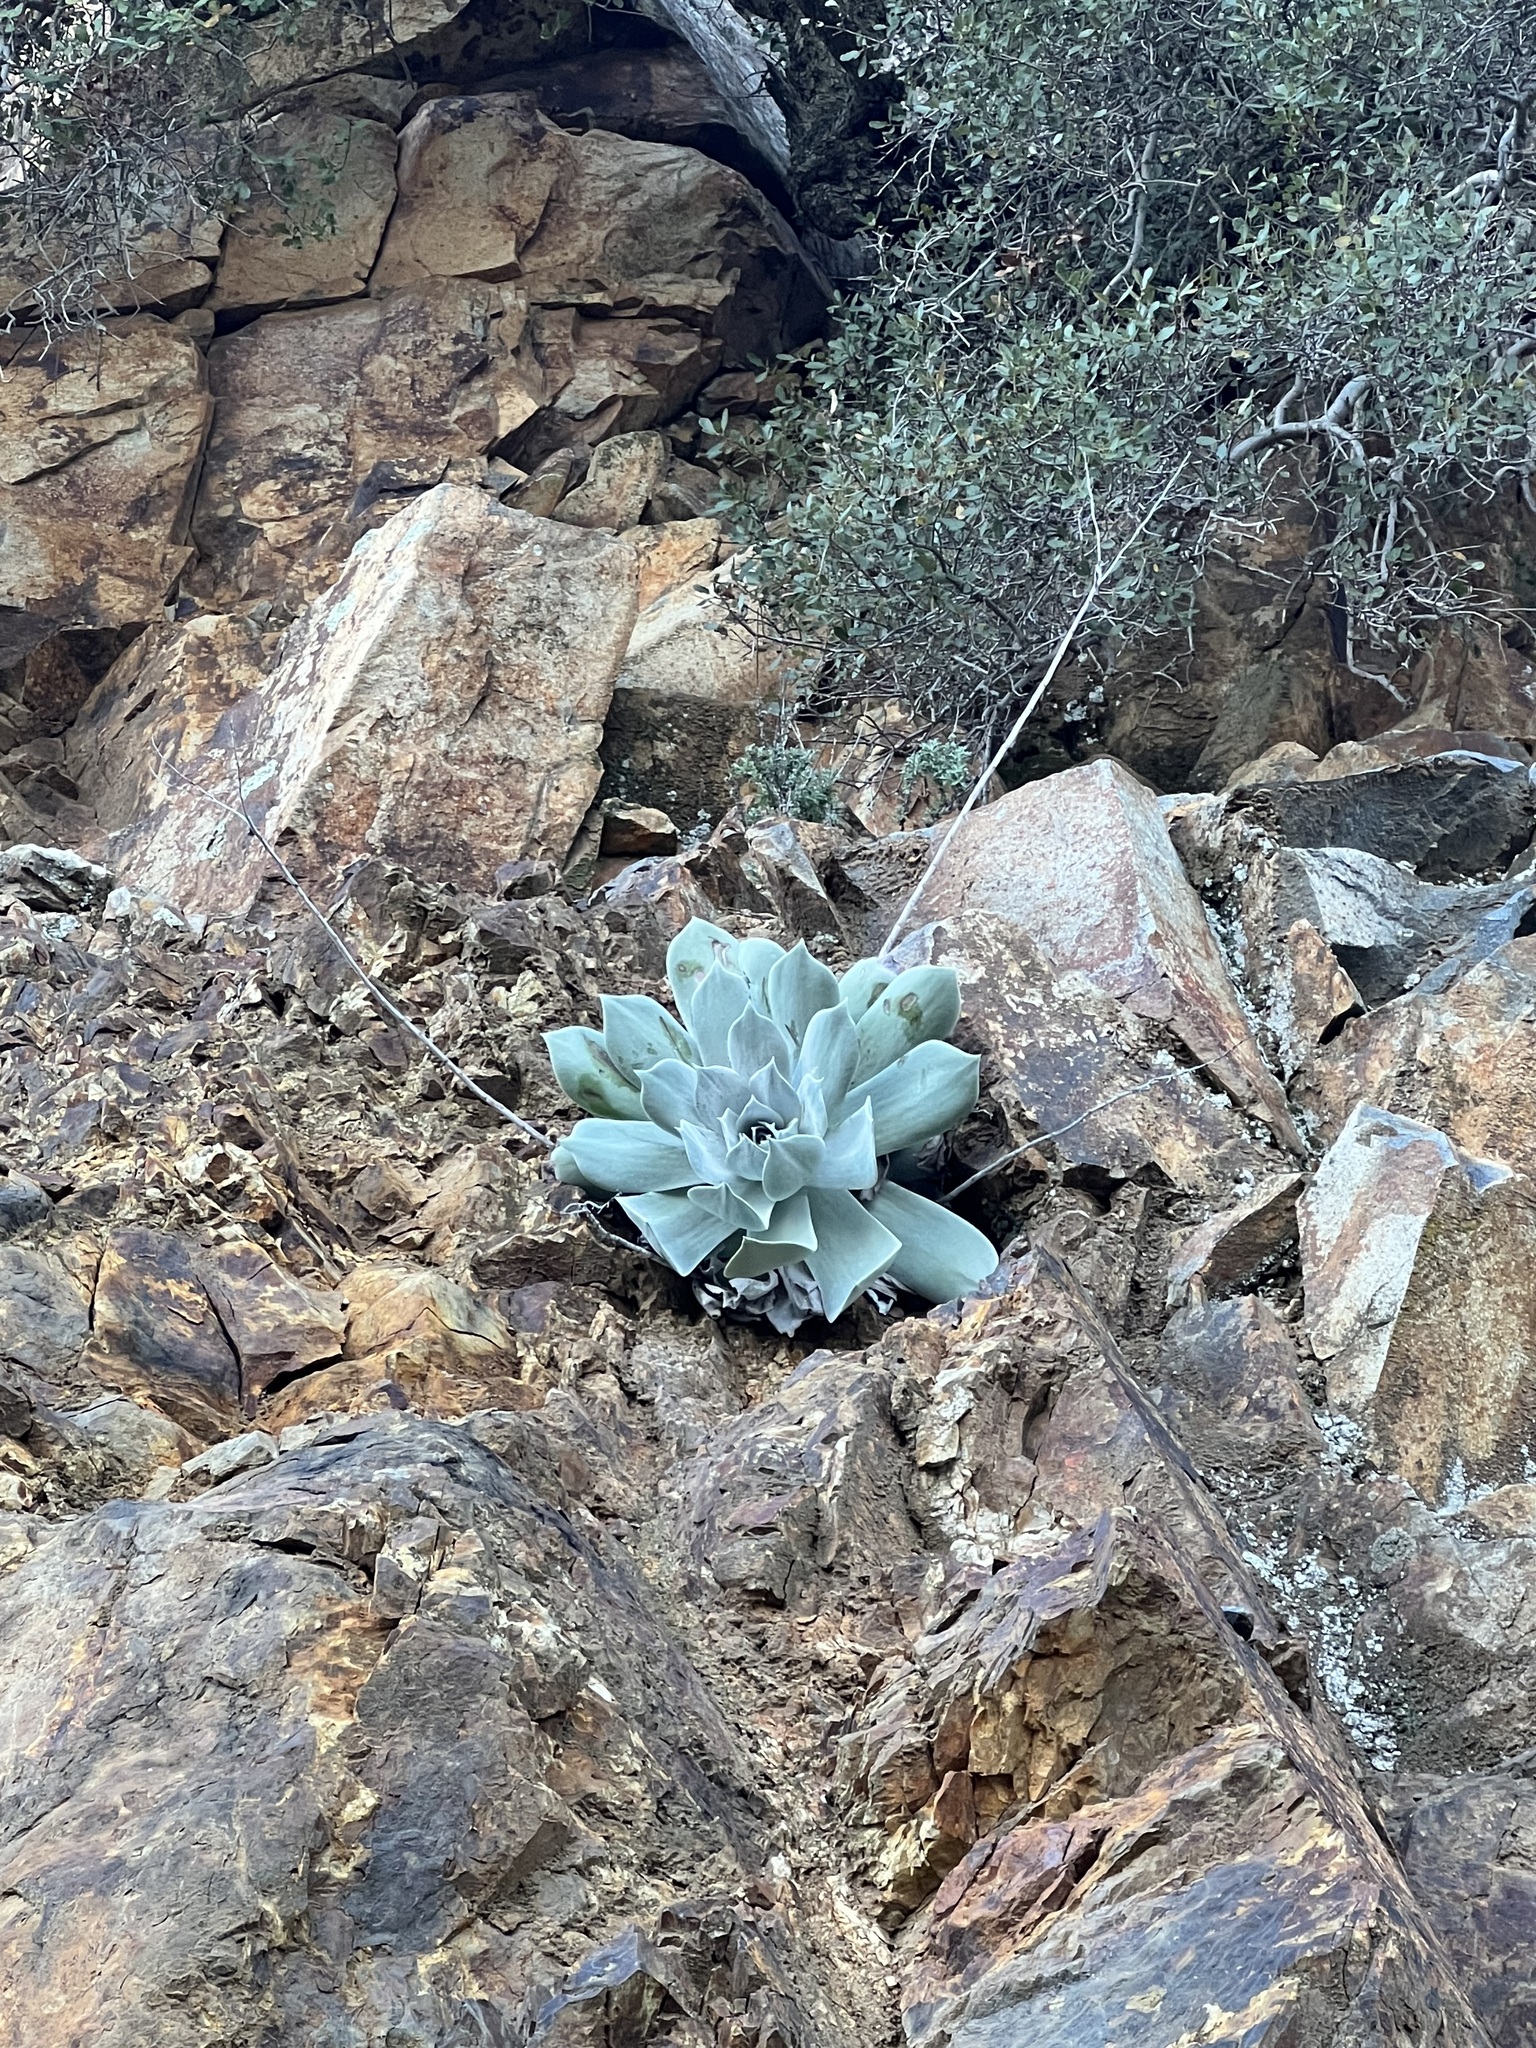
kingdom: Plantae
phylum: Tracheophyta
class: Magnoliopsida
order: Saxifragales
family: Crassulaceae
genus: Dudleya
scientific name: Dudleya pulverulenta
